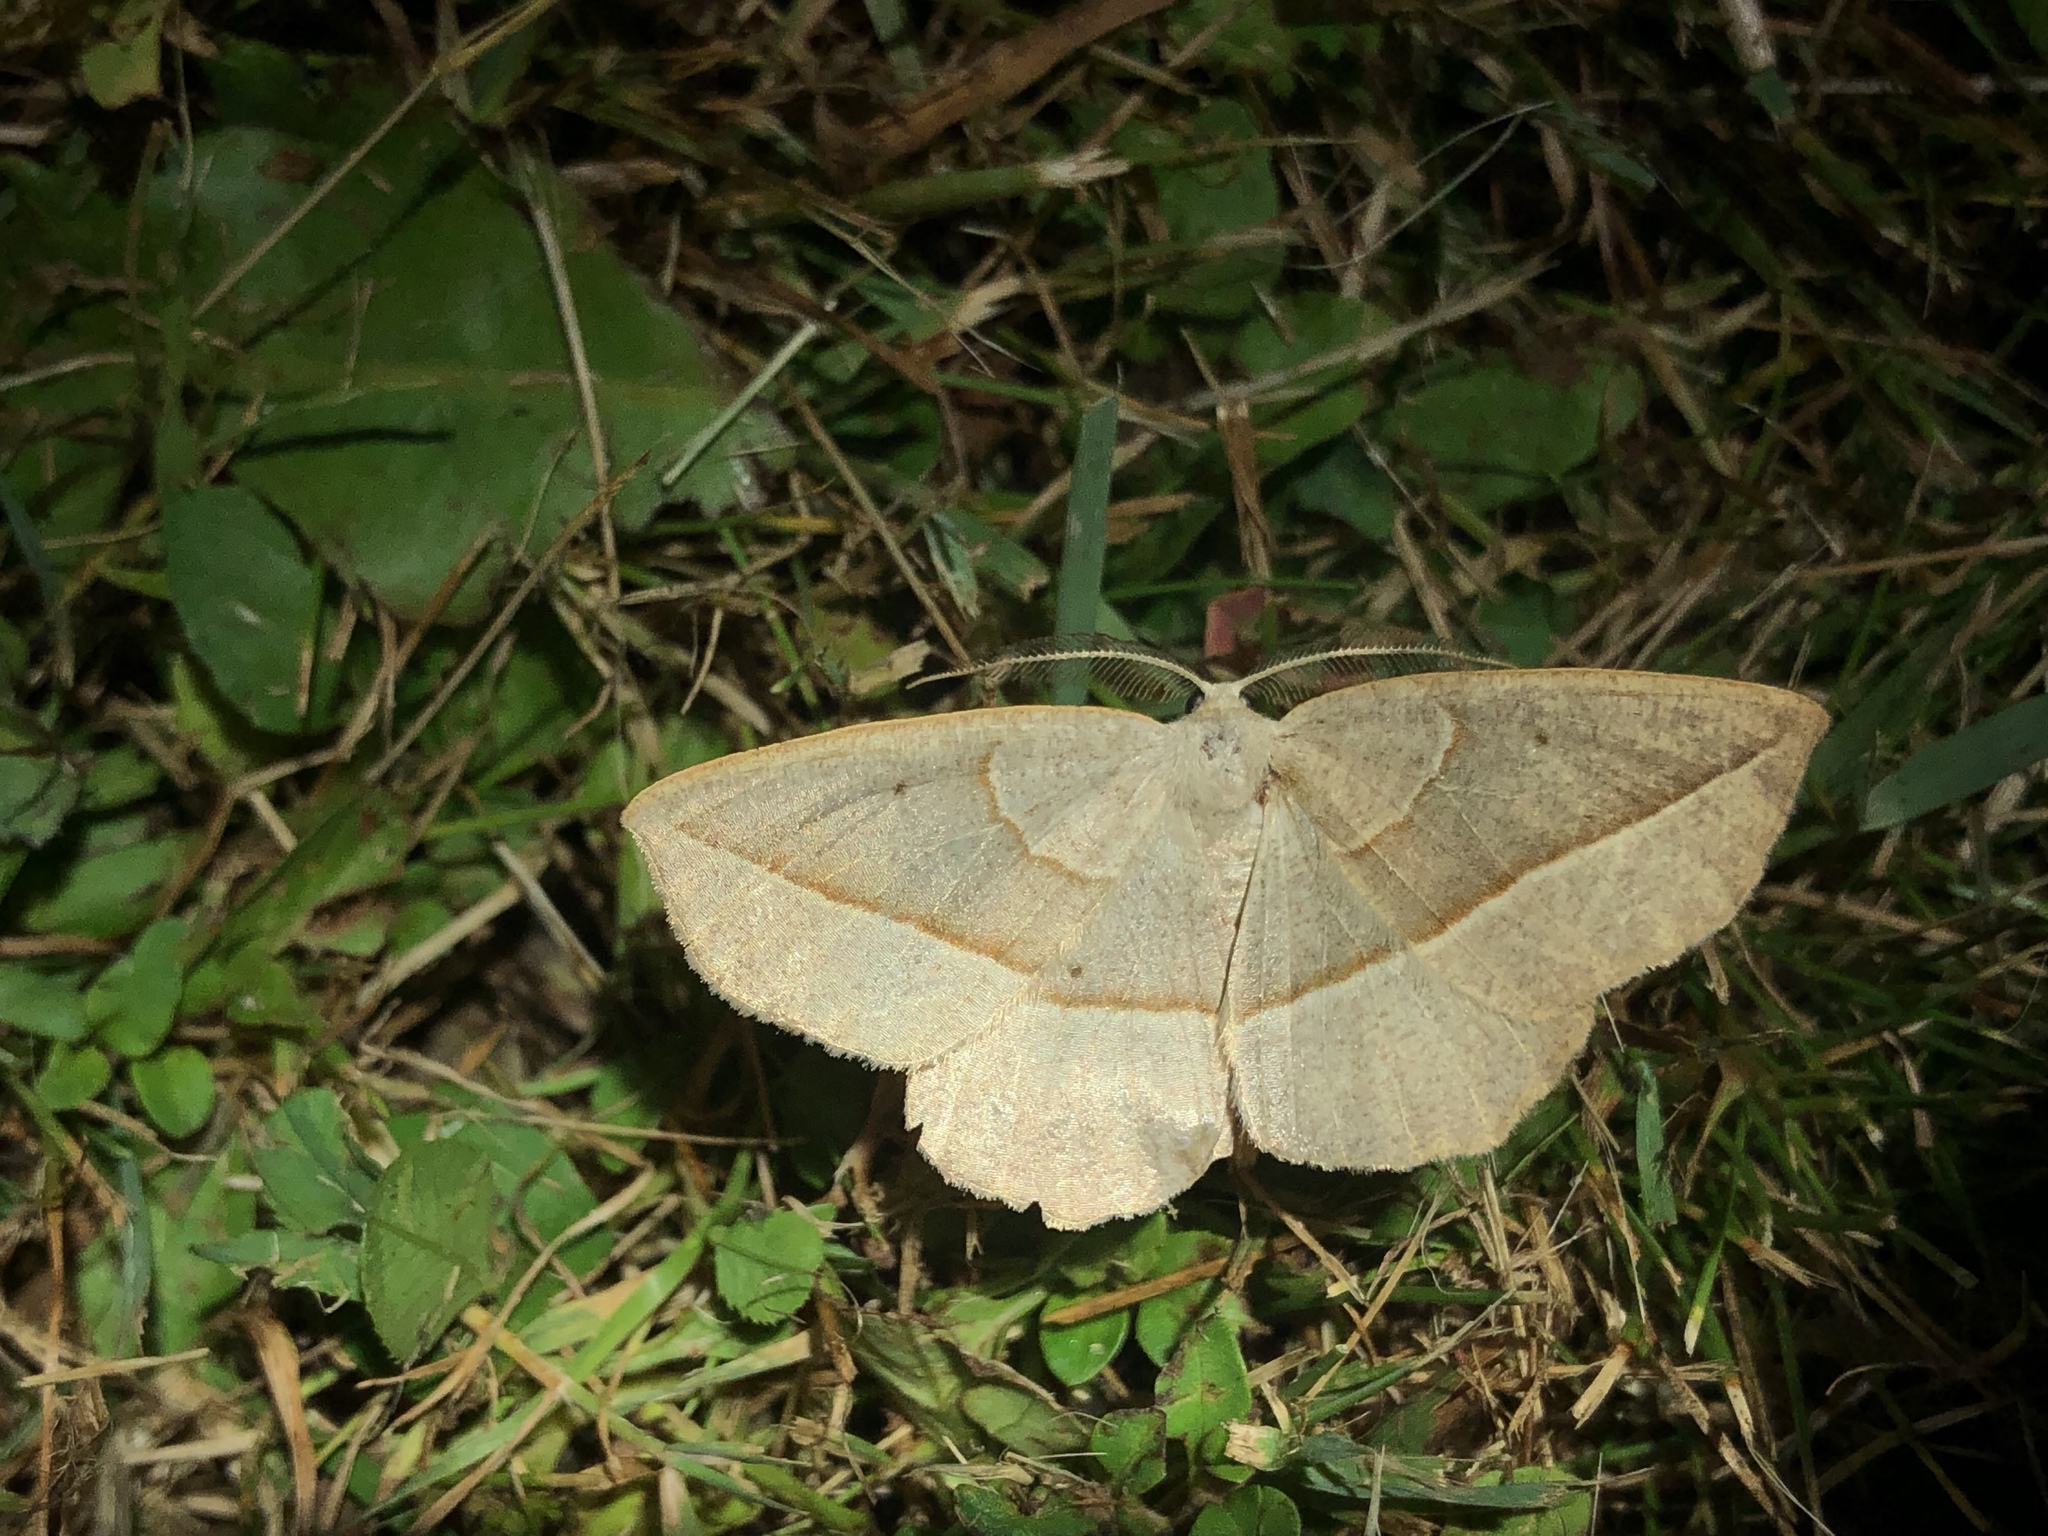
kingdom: Animalia
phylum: Arthropoda
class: Insecta
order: Lepidoptera
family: Geometridae
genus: Eusarca
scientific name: Eusarca confusaria
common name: Confused eusarca
